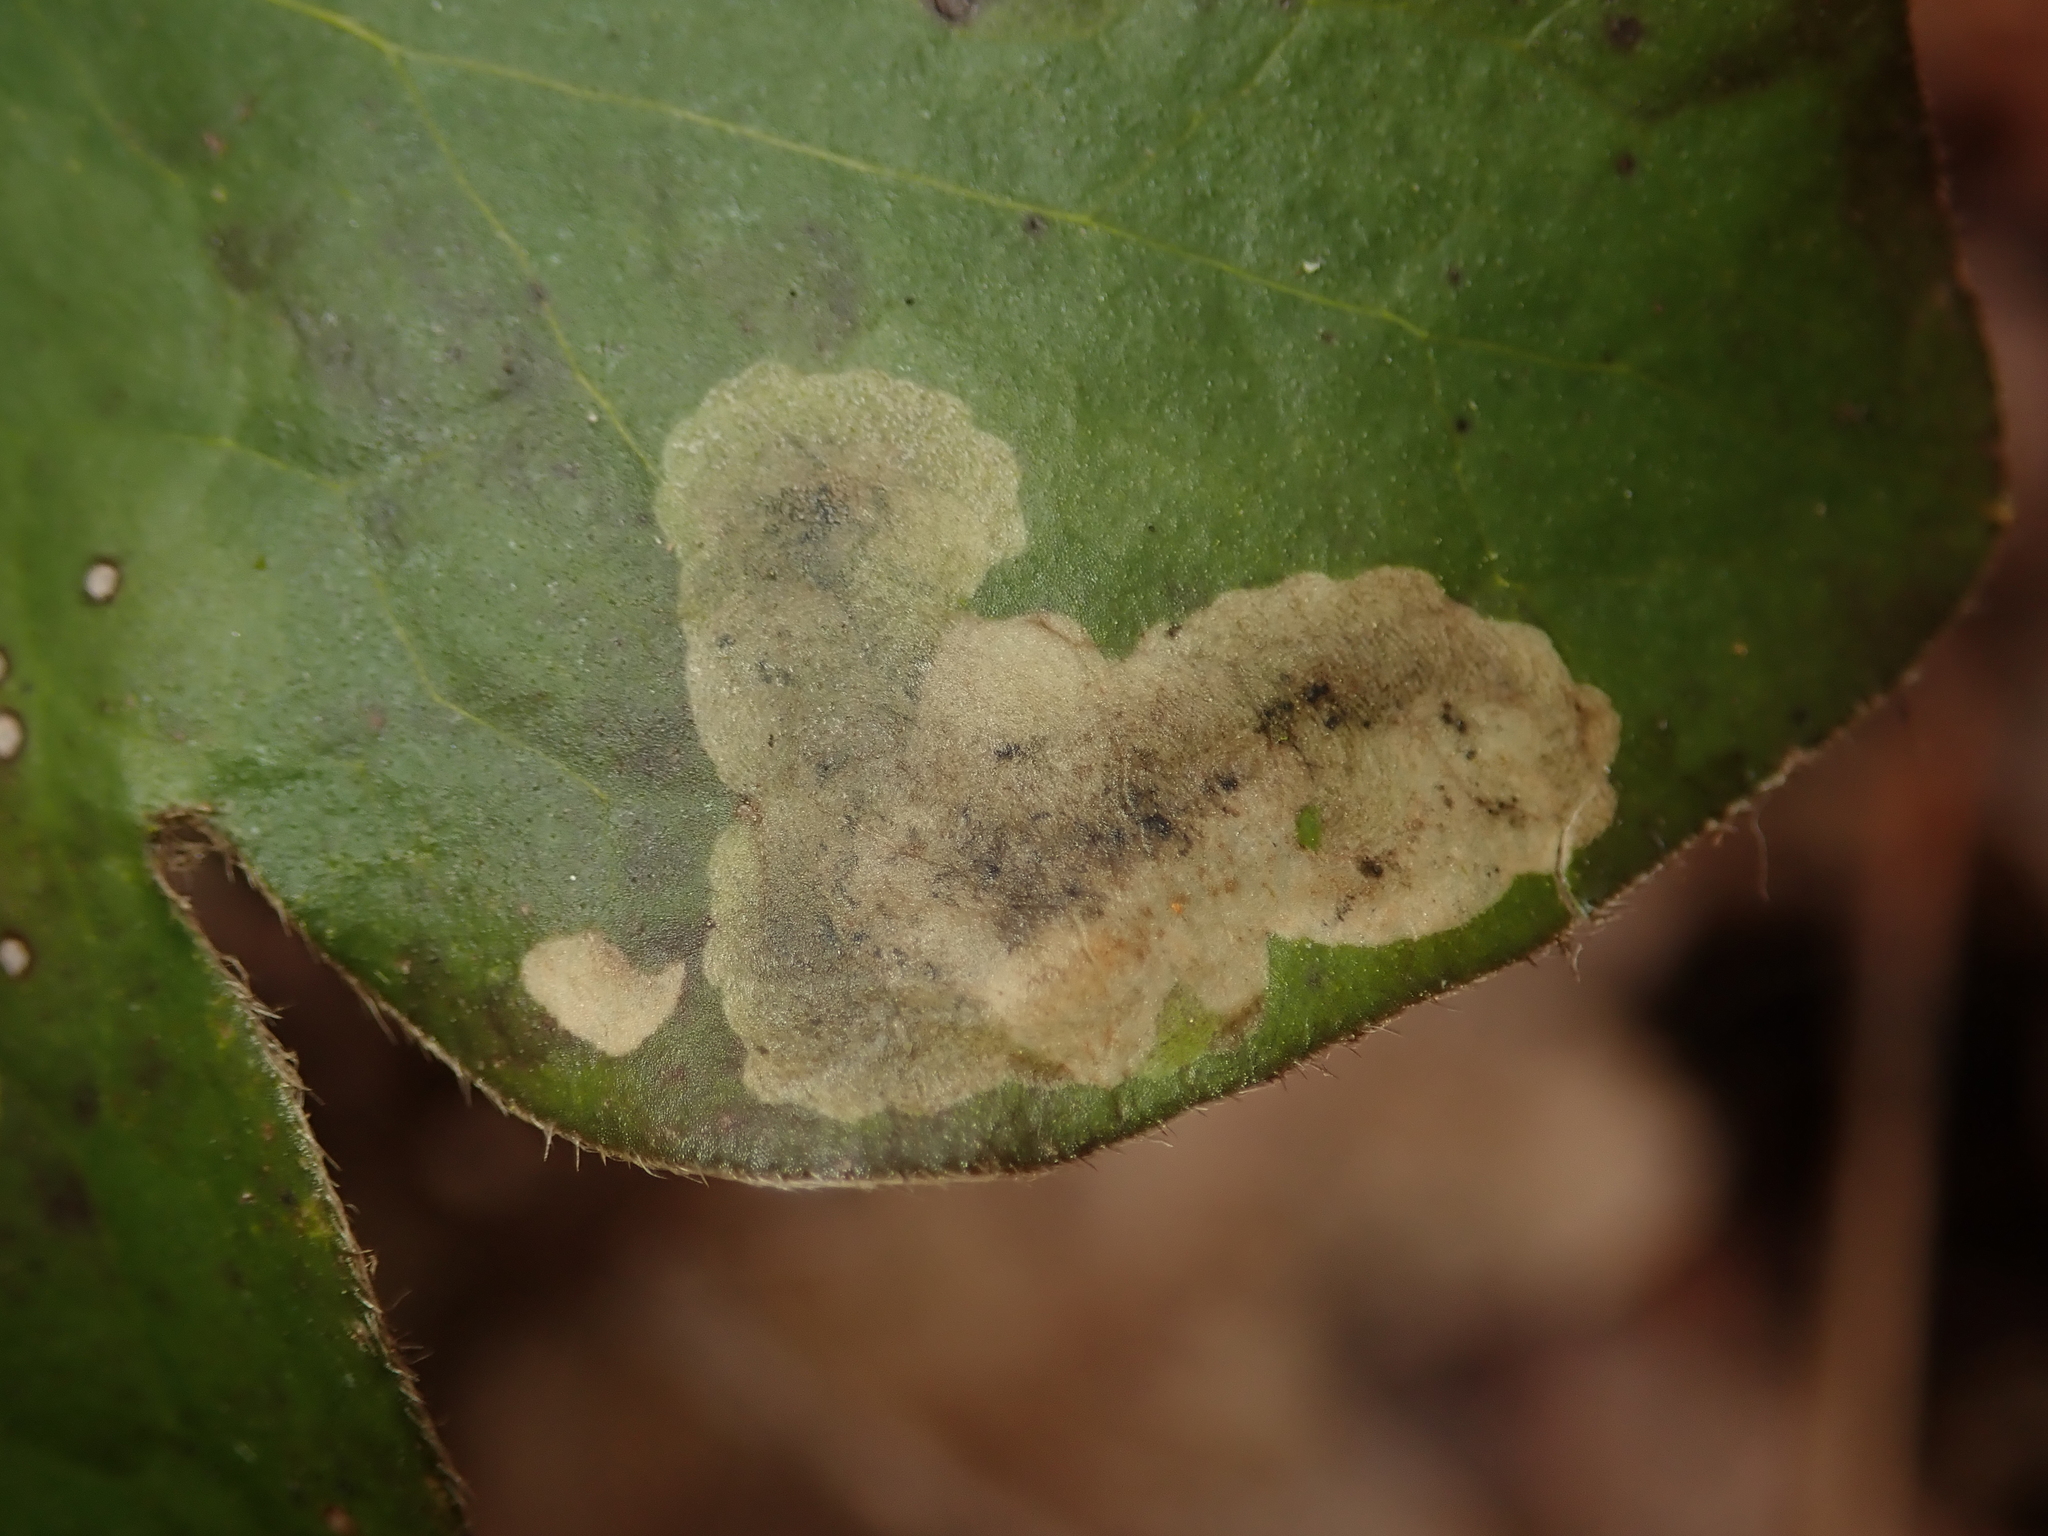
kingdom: Animalia
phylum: Arthropoda
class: Insecta
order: Diptera
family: Agromyzidae
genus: Phytomyza
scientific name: Phytomyza abdominalis
